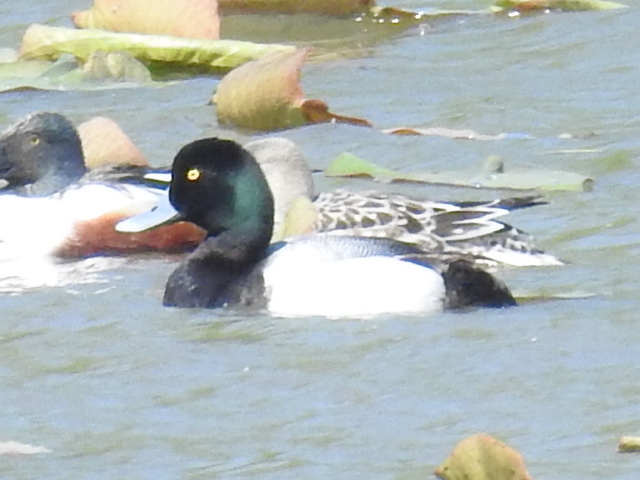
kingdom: Animalia
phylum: Chordata
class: Aves
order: Anseriformes
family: Anatidae
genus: Aythya
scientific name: Aythya marila
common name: Greater scaup
